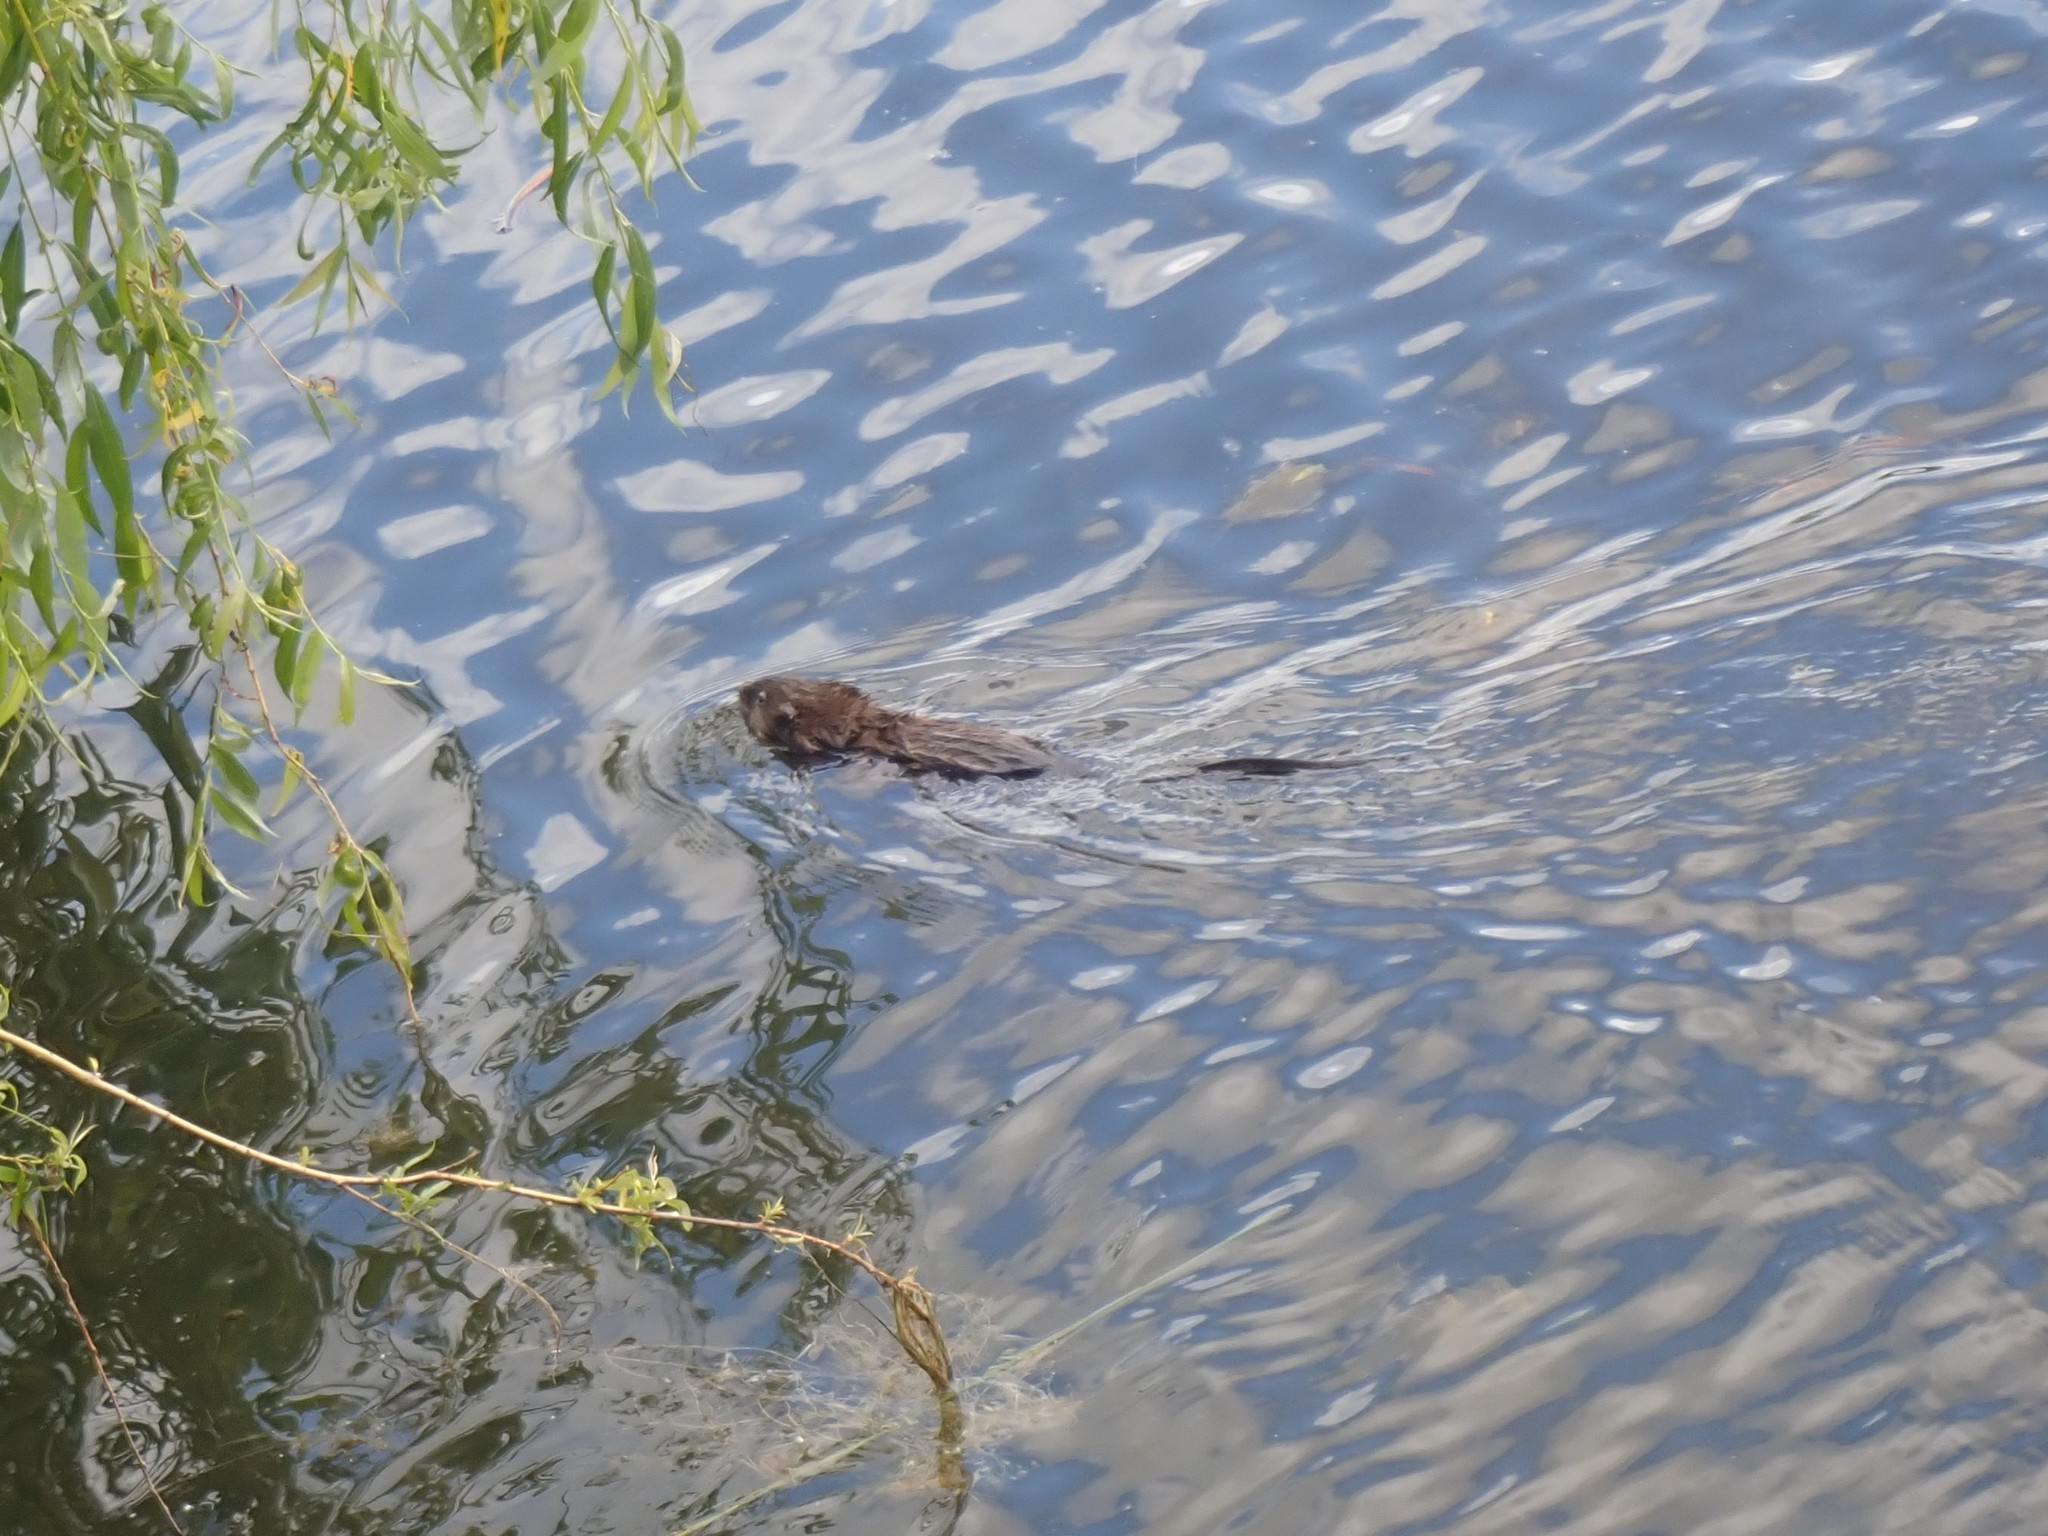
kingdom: Animalia
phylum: Chordata
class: Mammalia
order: Rodentia
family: Cricetidae
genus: Ondatra
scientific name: Ondatra zibethicus
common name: Muskrat
